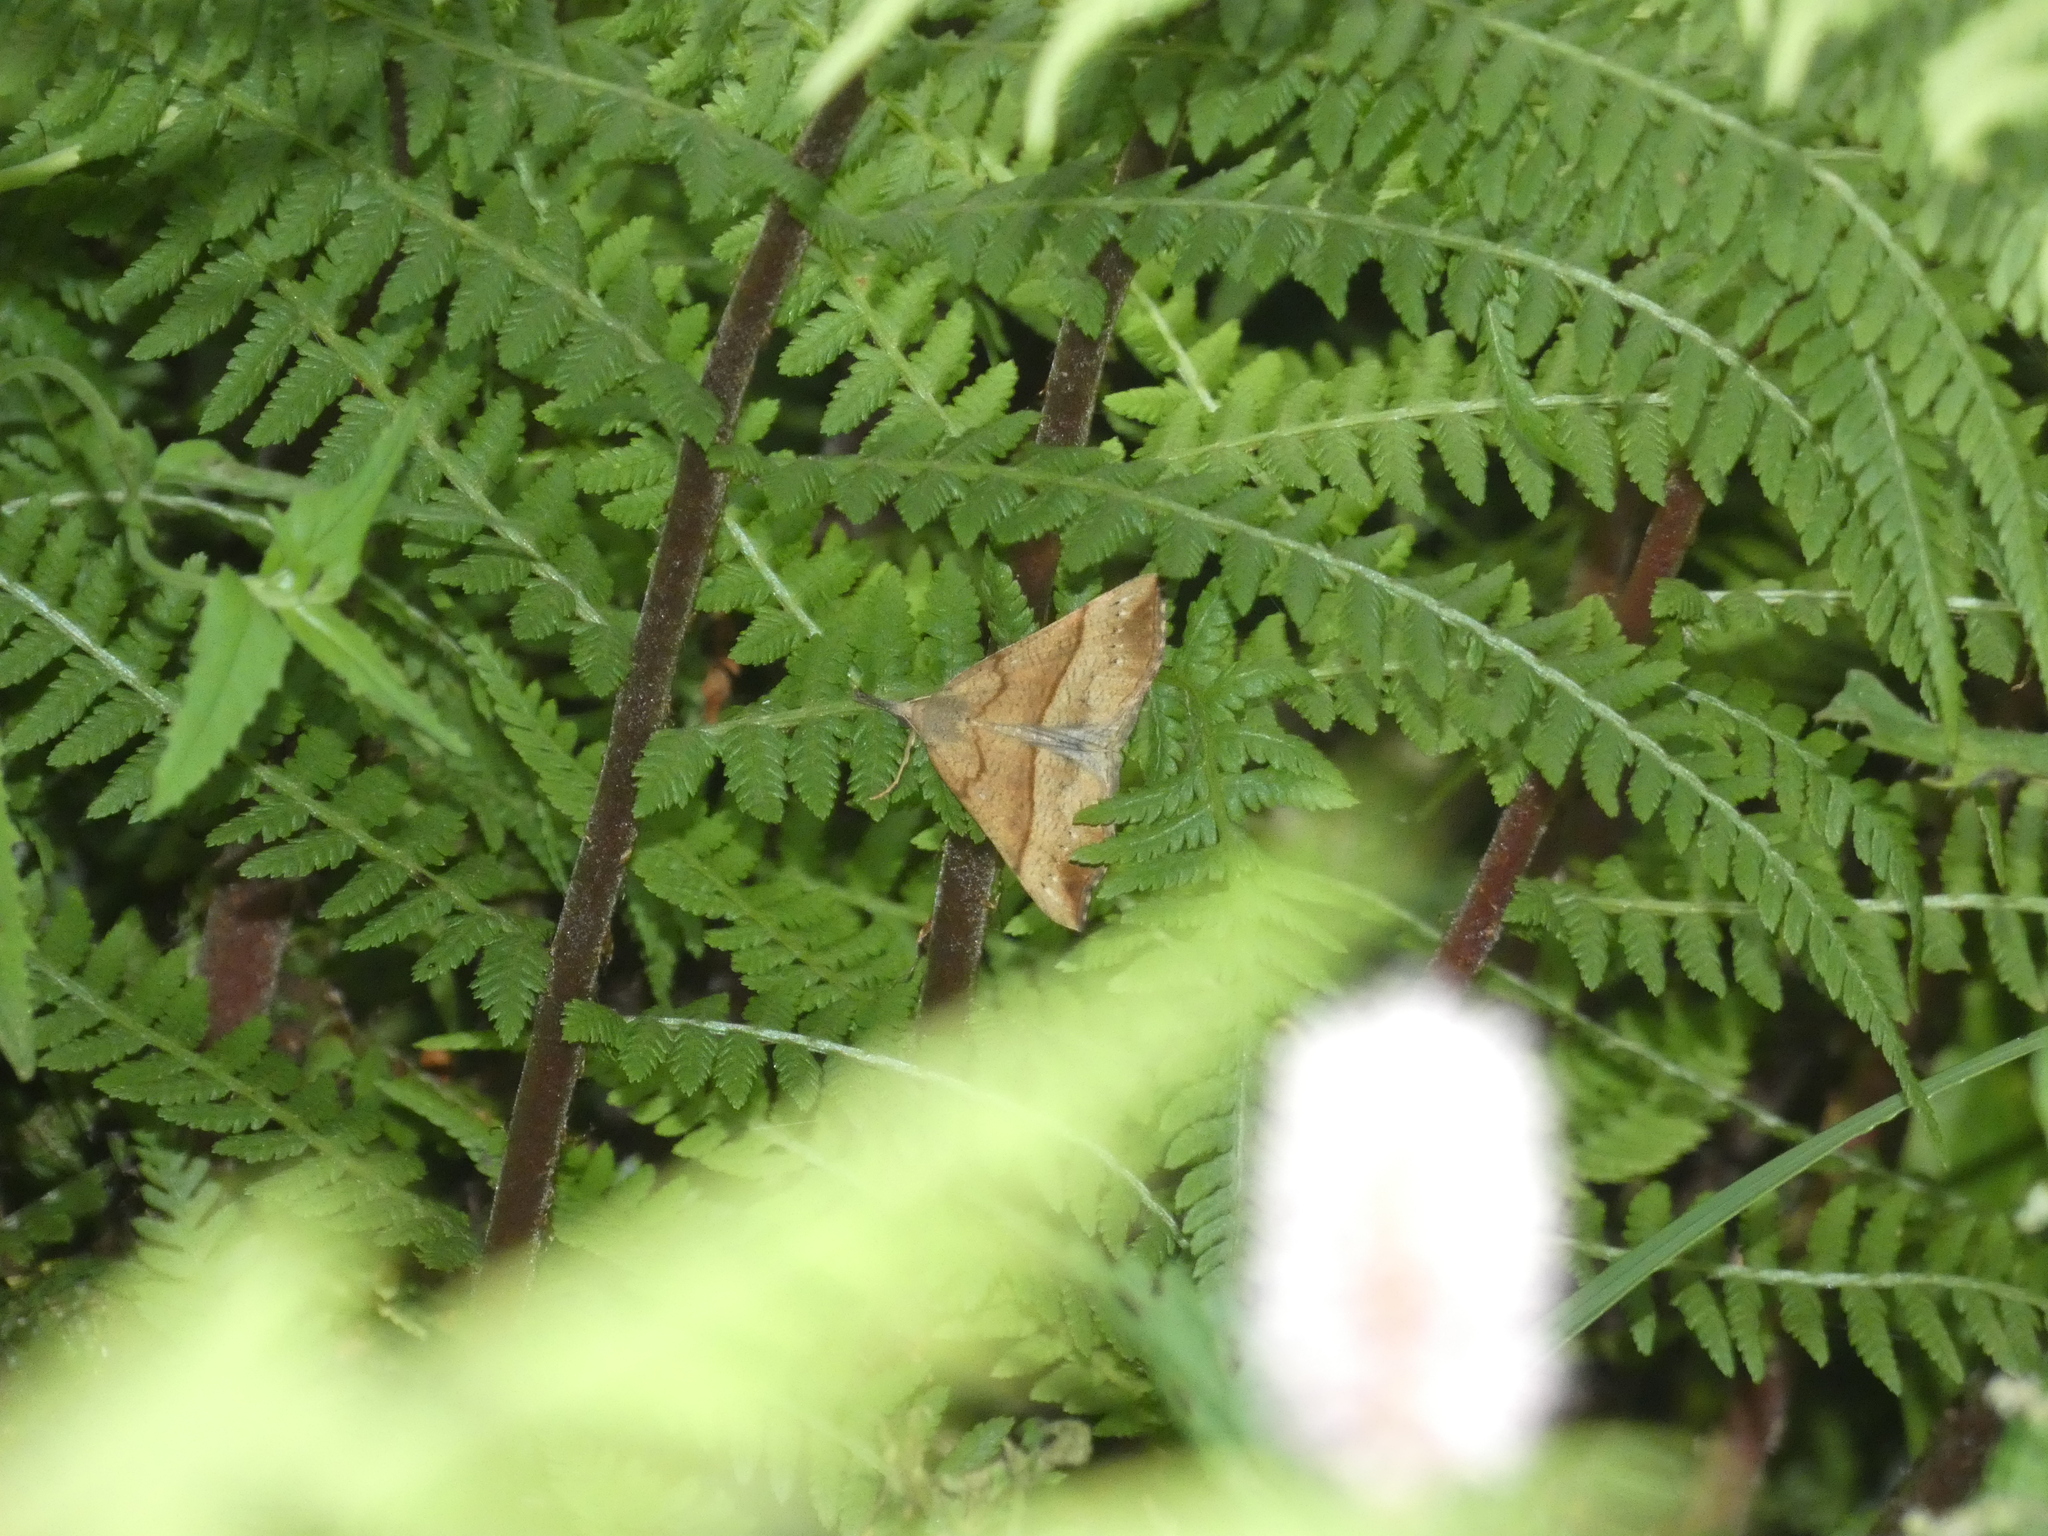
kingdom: Animalia
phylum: Arthropoda
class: Insecta
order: Lepidoptera
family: Erebidae
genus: Hypena
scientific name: Hypena proboscidalis
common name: Snout
